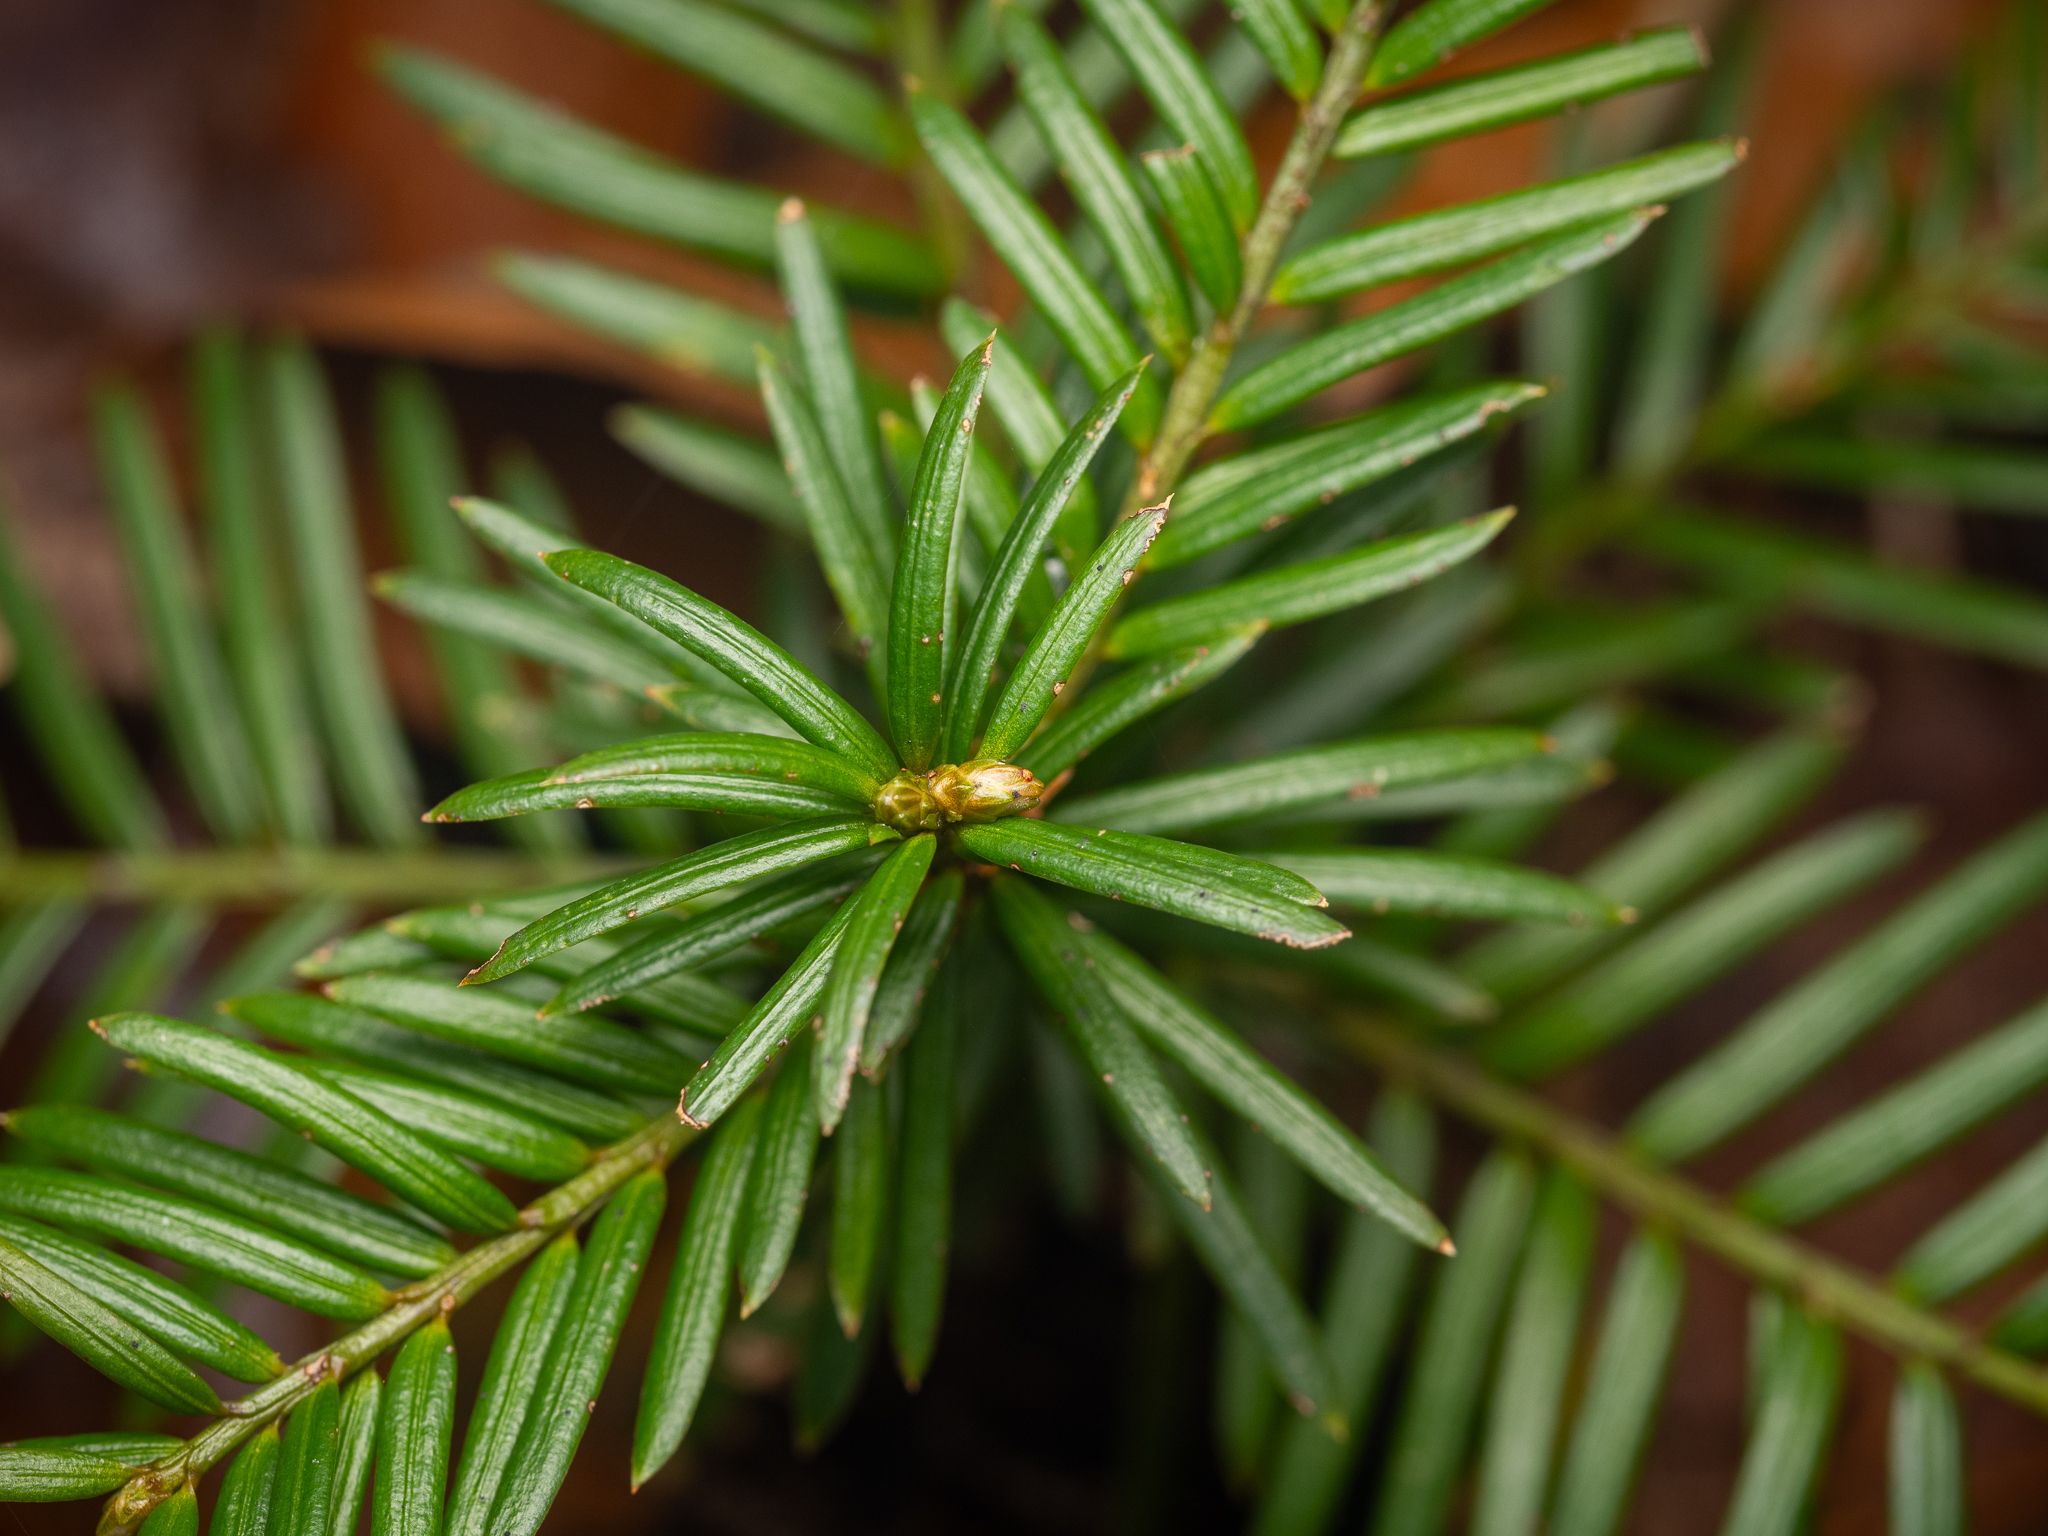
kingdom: Plantae
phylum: Tracheophyta
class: Pinopsida
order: Pinales
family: Taxaceae
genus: Taxus
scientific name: Taxus baccata
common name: Yew
